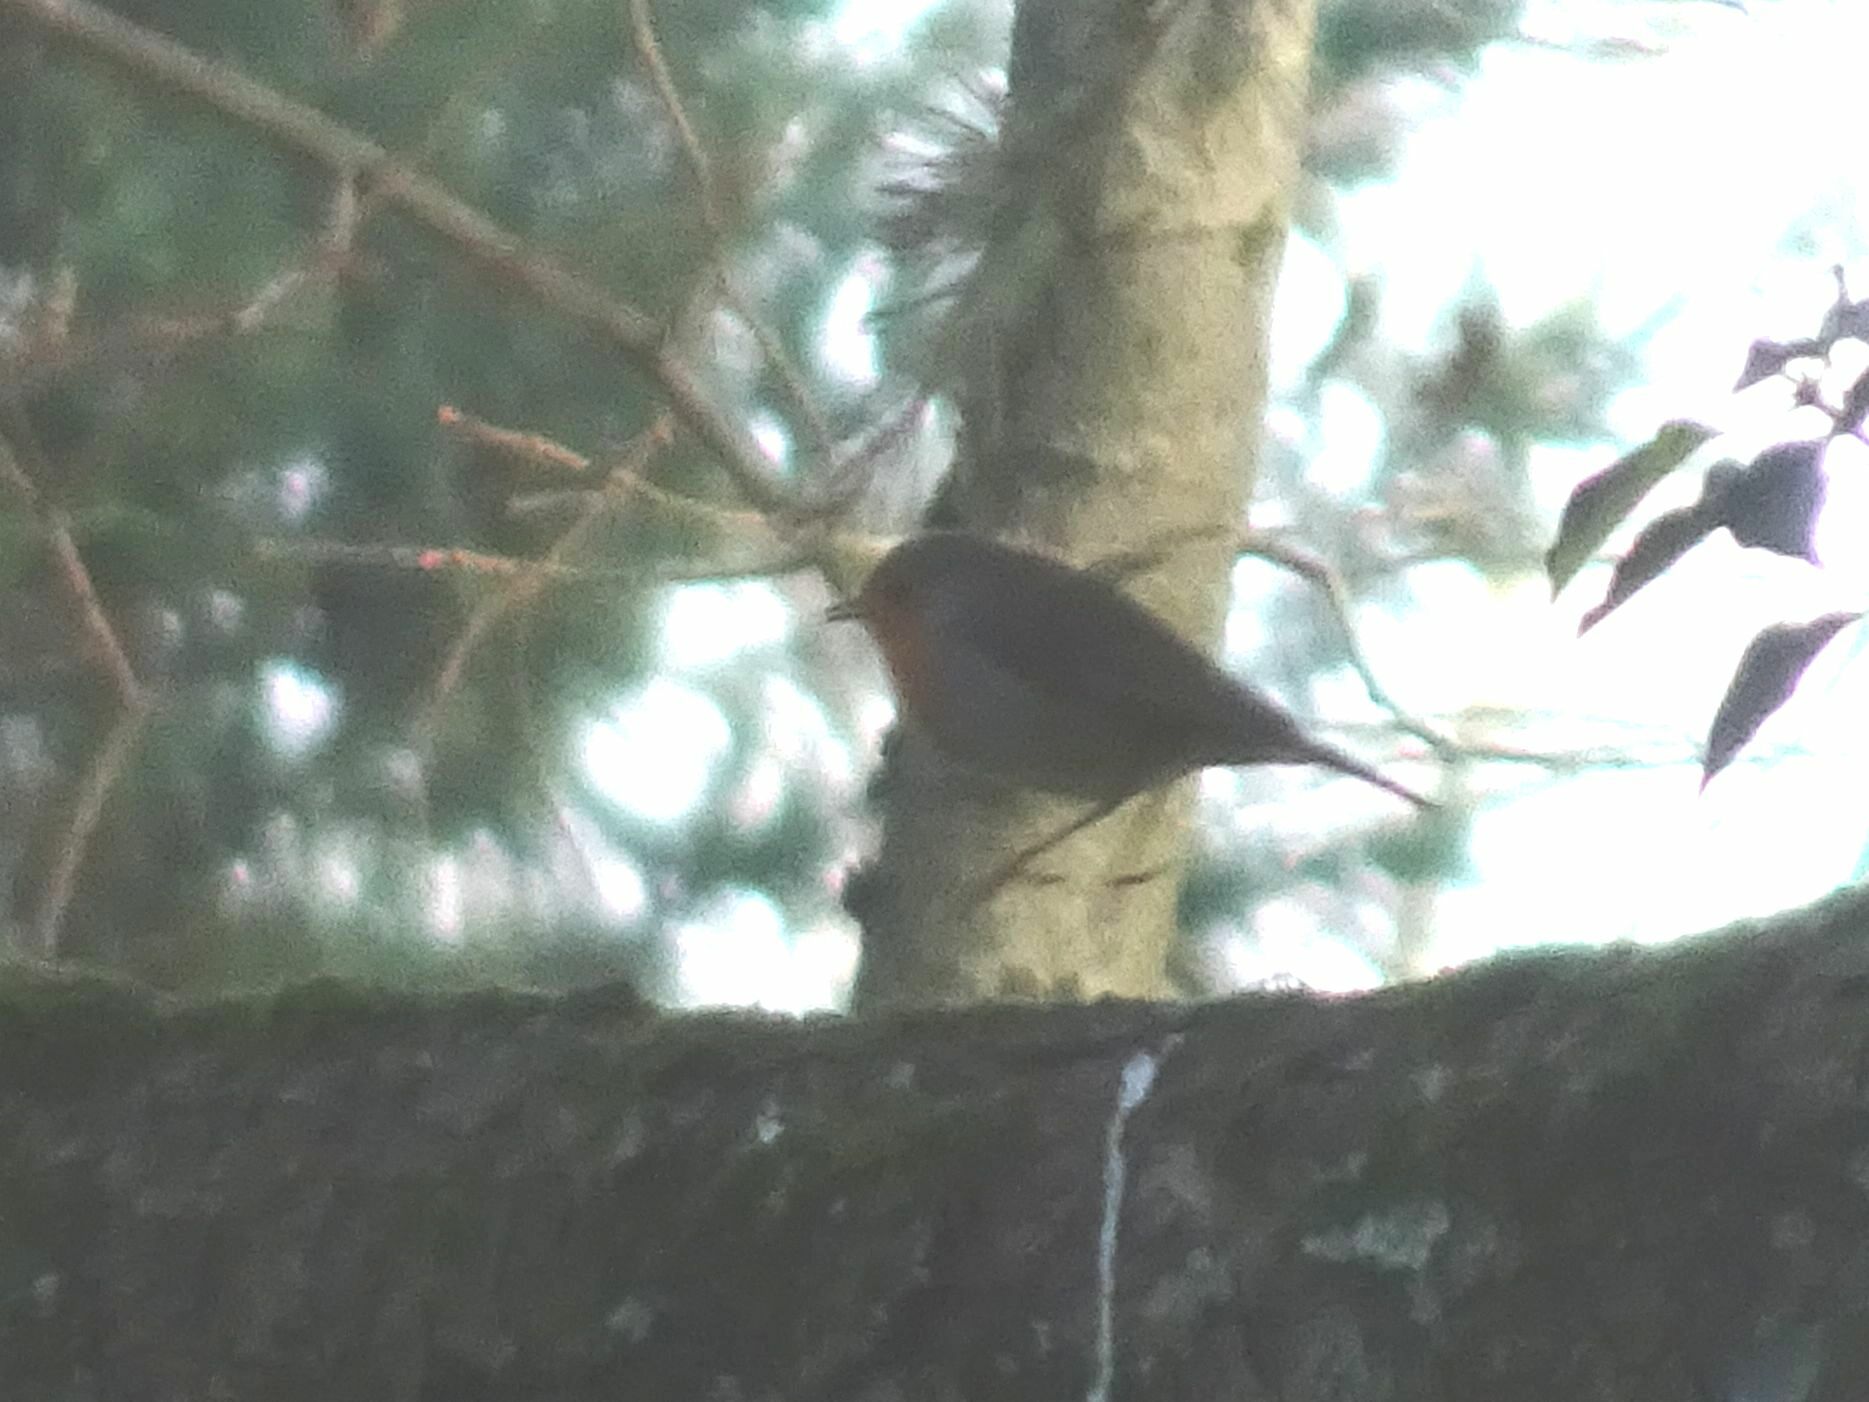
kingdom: Animalia
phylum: Chordata
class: Aves
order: Passeriformes
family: Muscicapidae
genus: Erithacus
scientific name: Erithacus rubecula
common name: European robin
